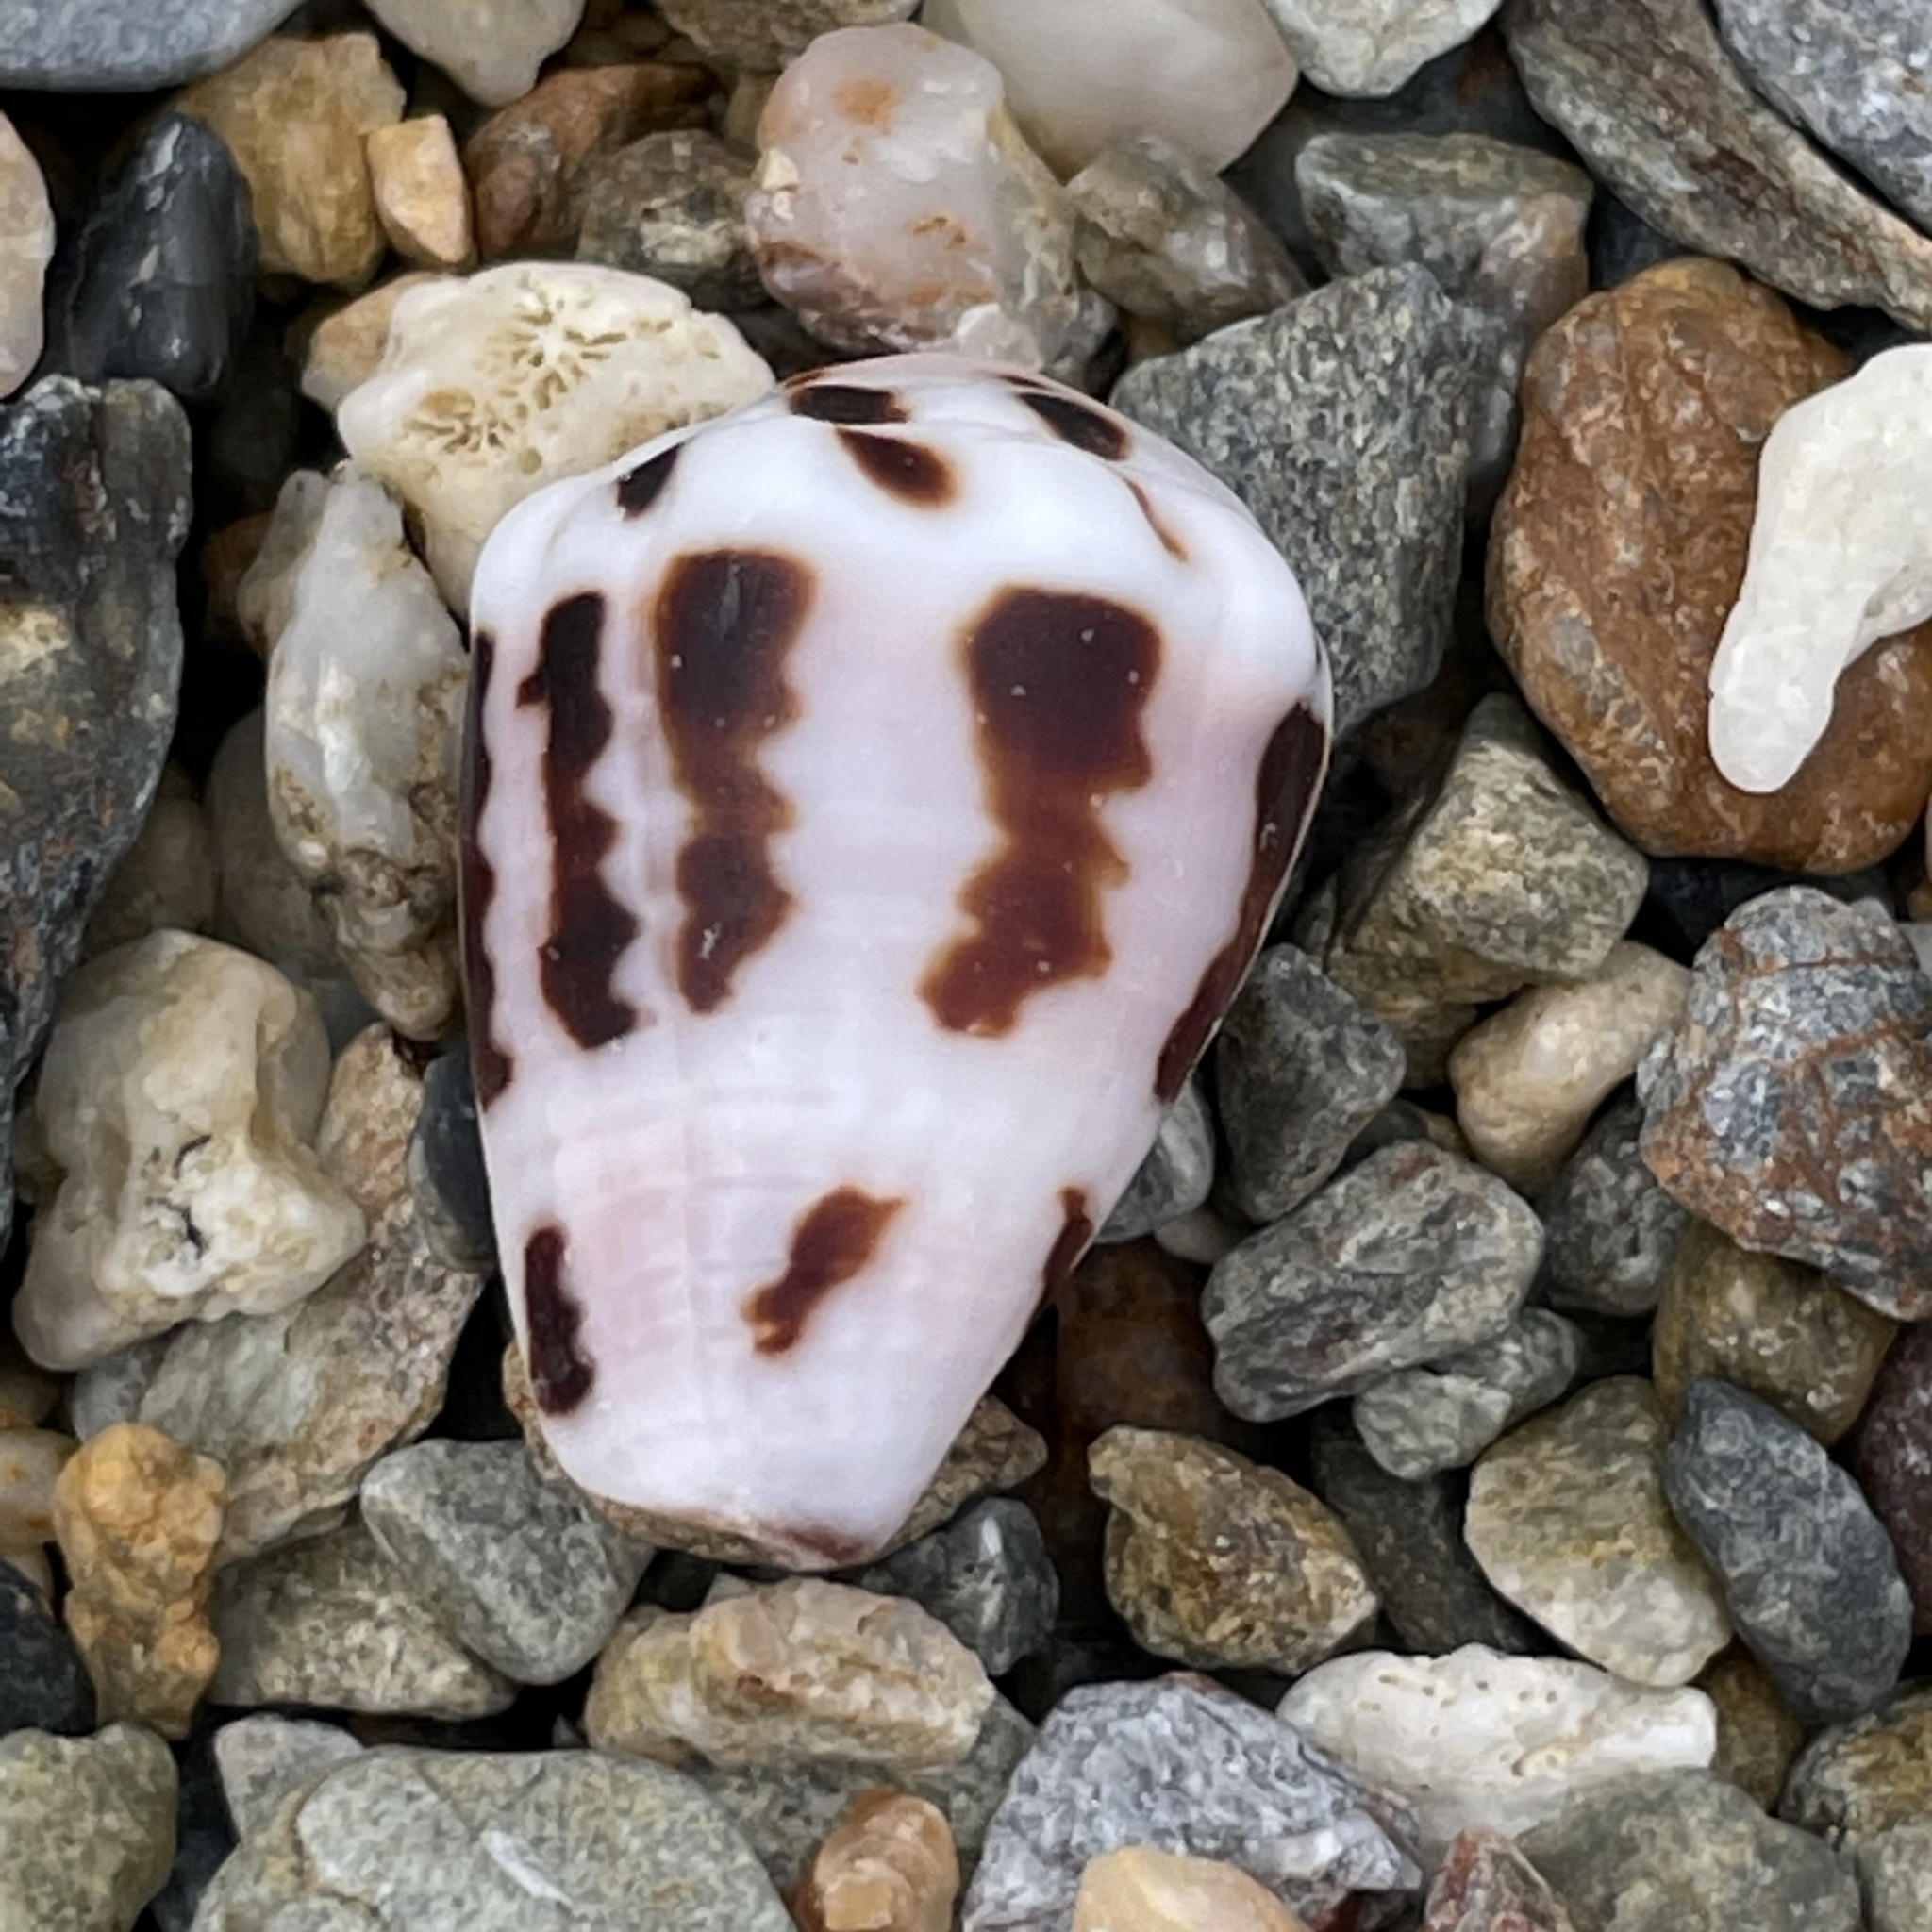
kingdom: Animalia
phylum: Mollusca
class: Gastropoda
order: Neogastropoda
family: Conidae
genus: Conus
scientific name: Conus ebraeus
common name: Hebrew cone
